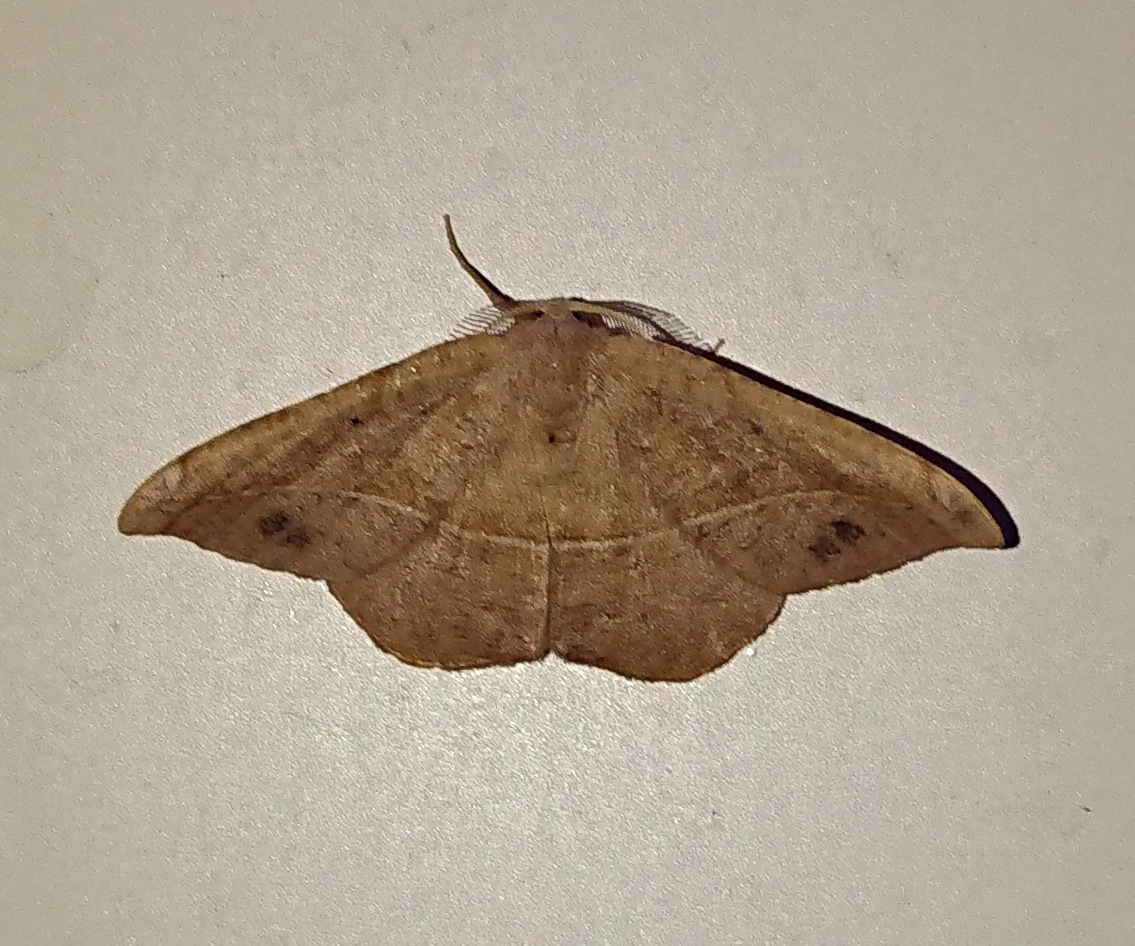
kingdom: Animalia
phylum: Arthropoda
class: Insecta
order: Lepidoptera
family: Geometridae
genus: Patalene
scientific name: Patalene olyzonaria
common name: Juniper geometer moth
